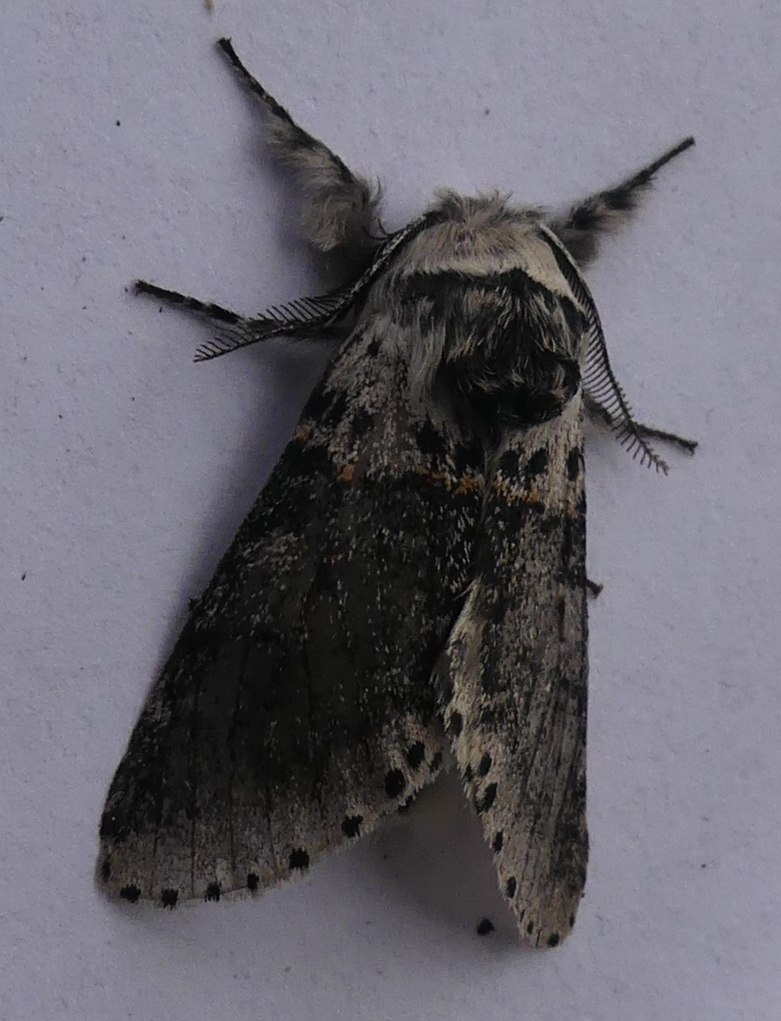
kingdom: Animalia
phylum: Arthropoda
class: Insecta
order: Lepidoptera
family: Notodontidae
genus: Furcula
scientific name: Furcula occidentalis
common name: Western furcula moth
